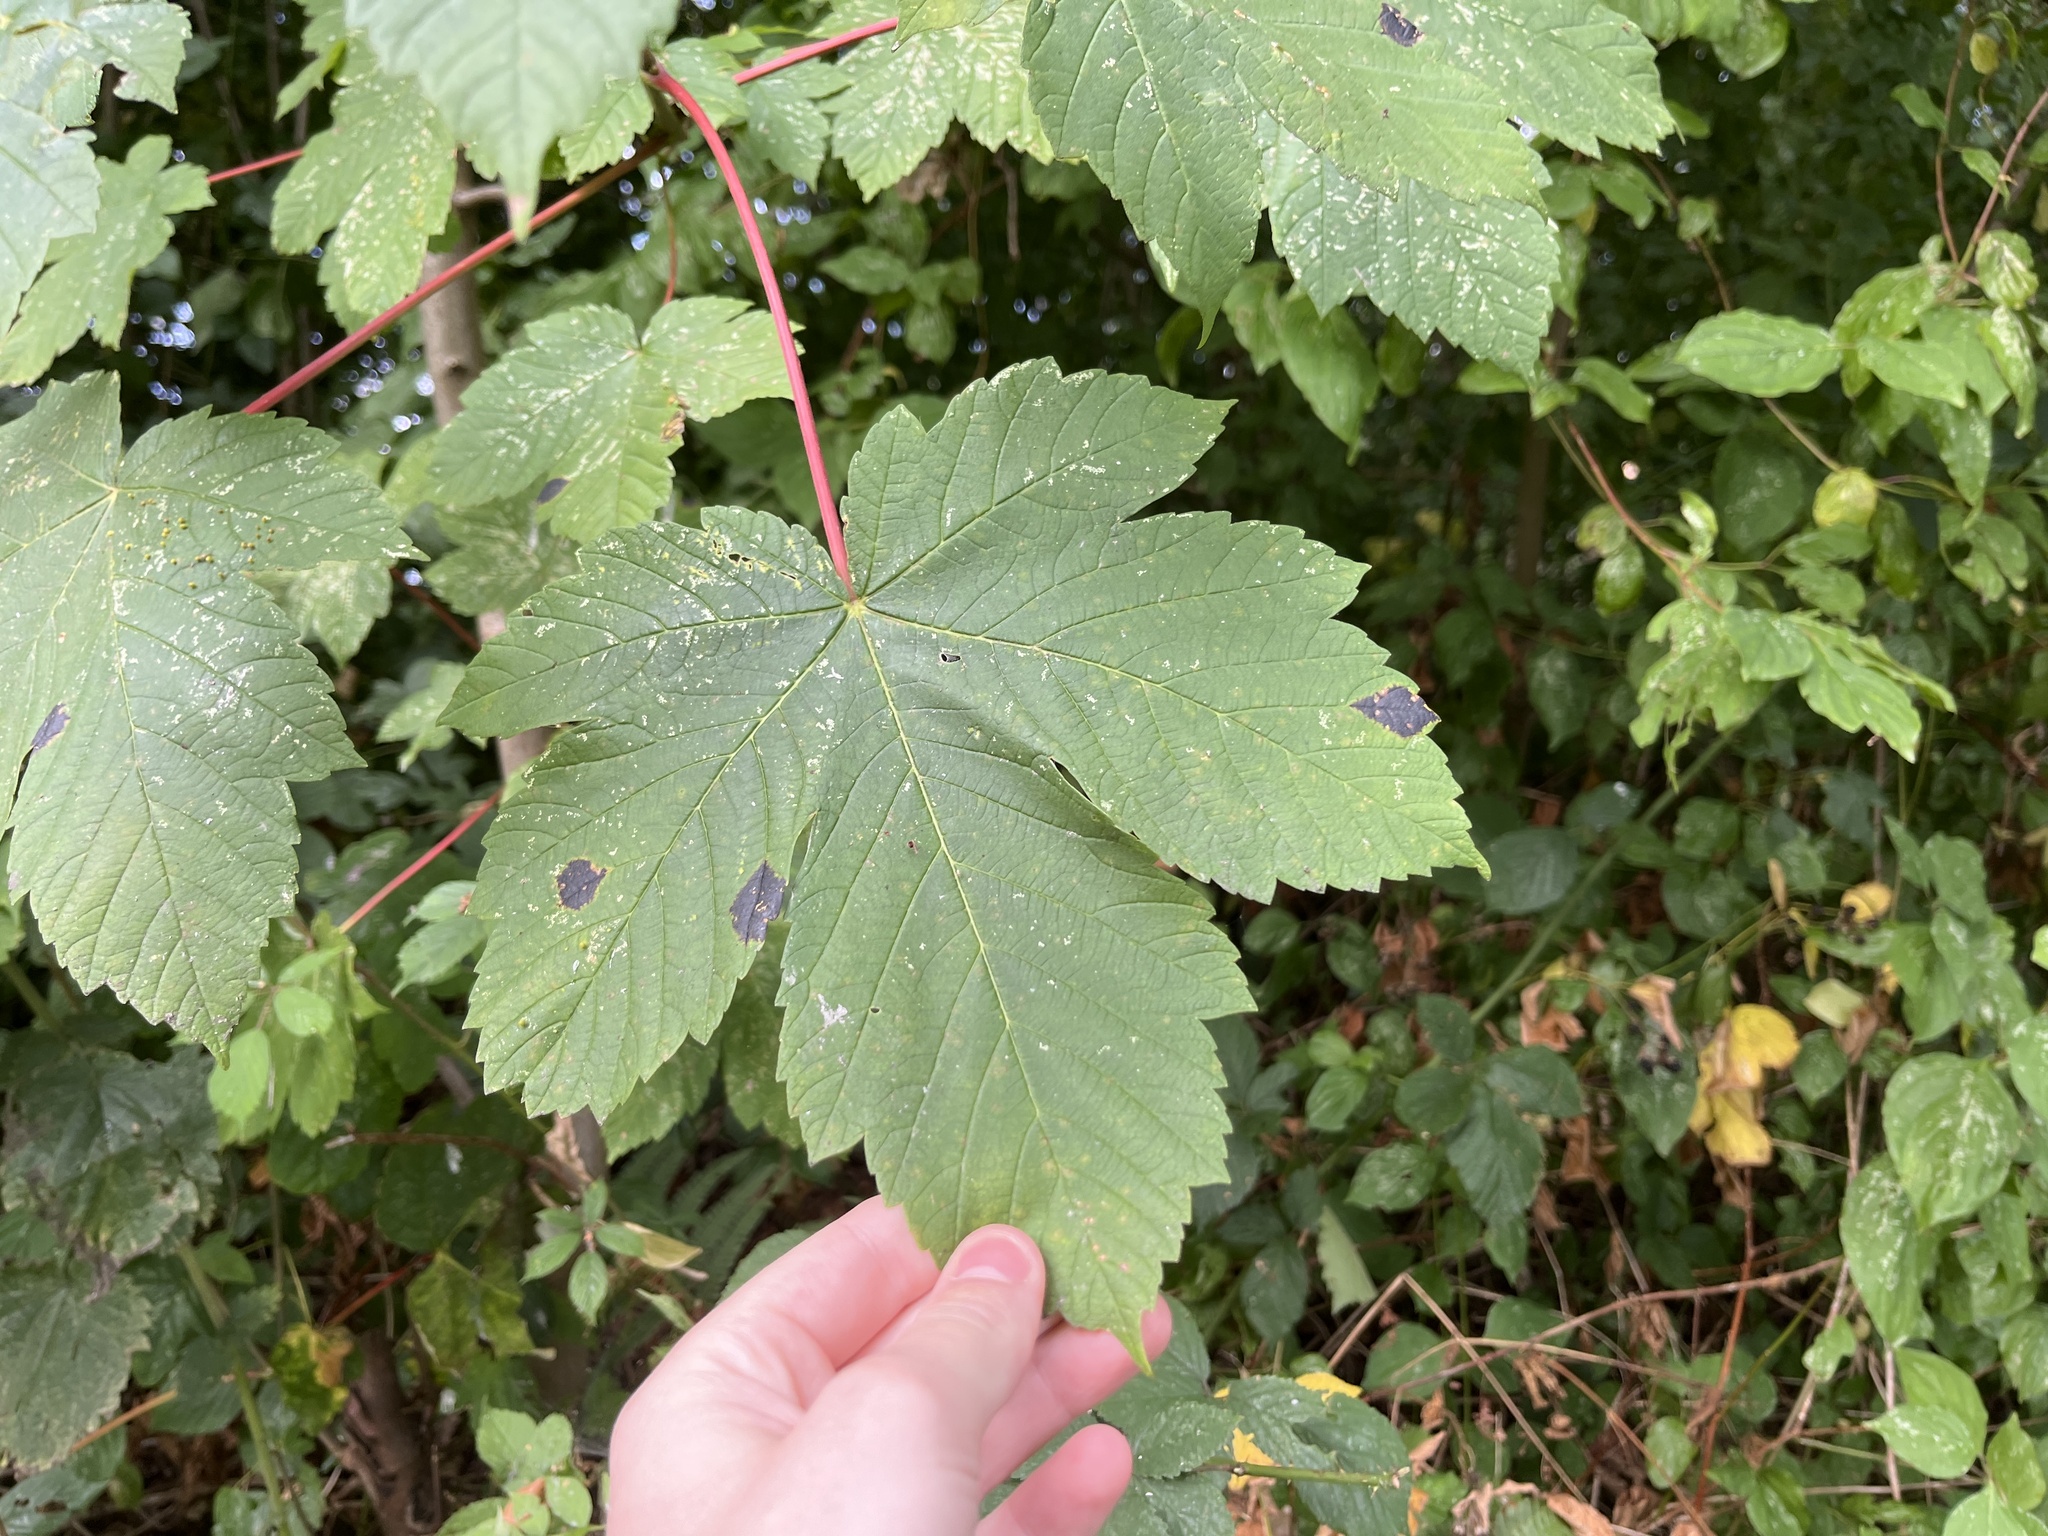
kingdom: Plantae
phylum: Tracheophyta
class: Magnoliopsida
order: Sapindales
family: Sapindaceae
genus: Acer
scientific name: Acer pseudoplatanus
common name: Sycamore
